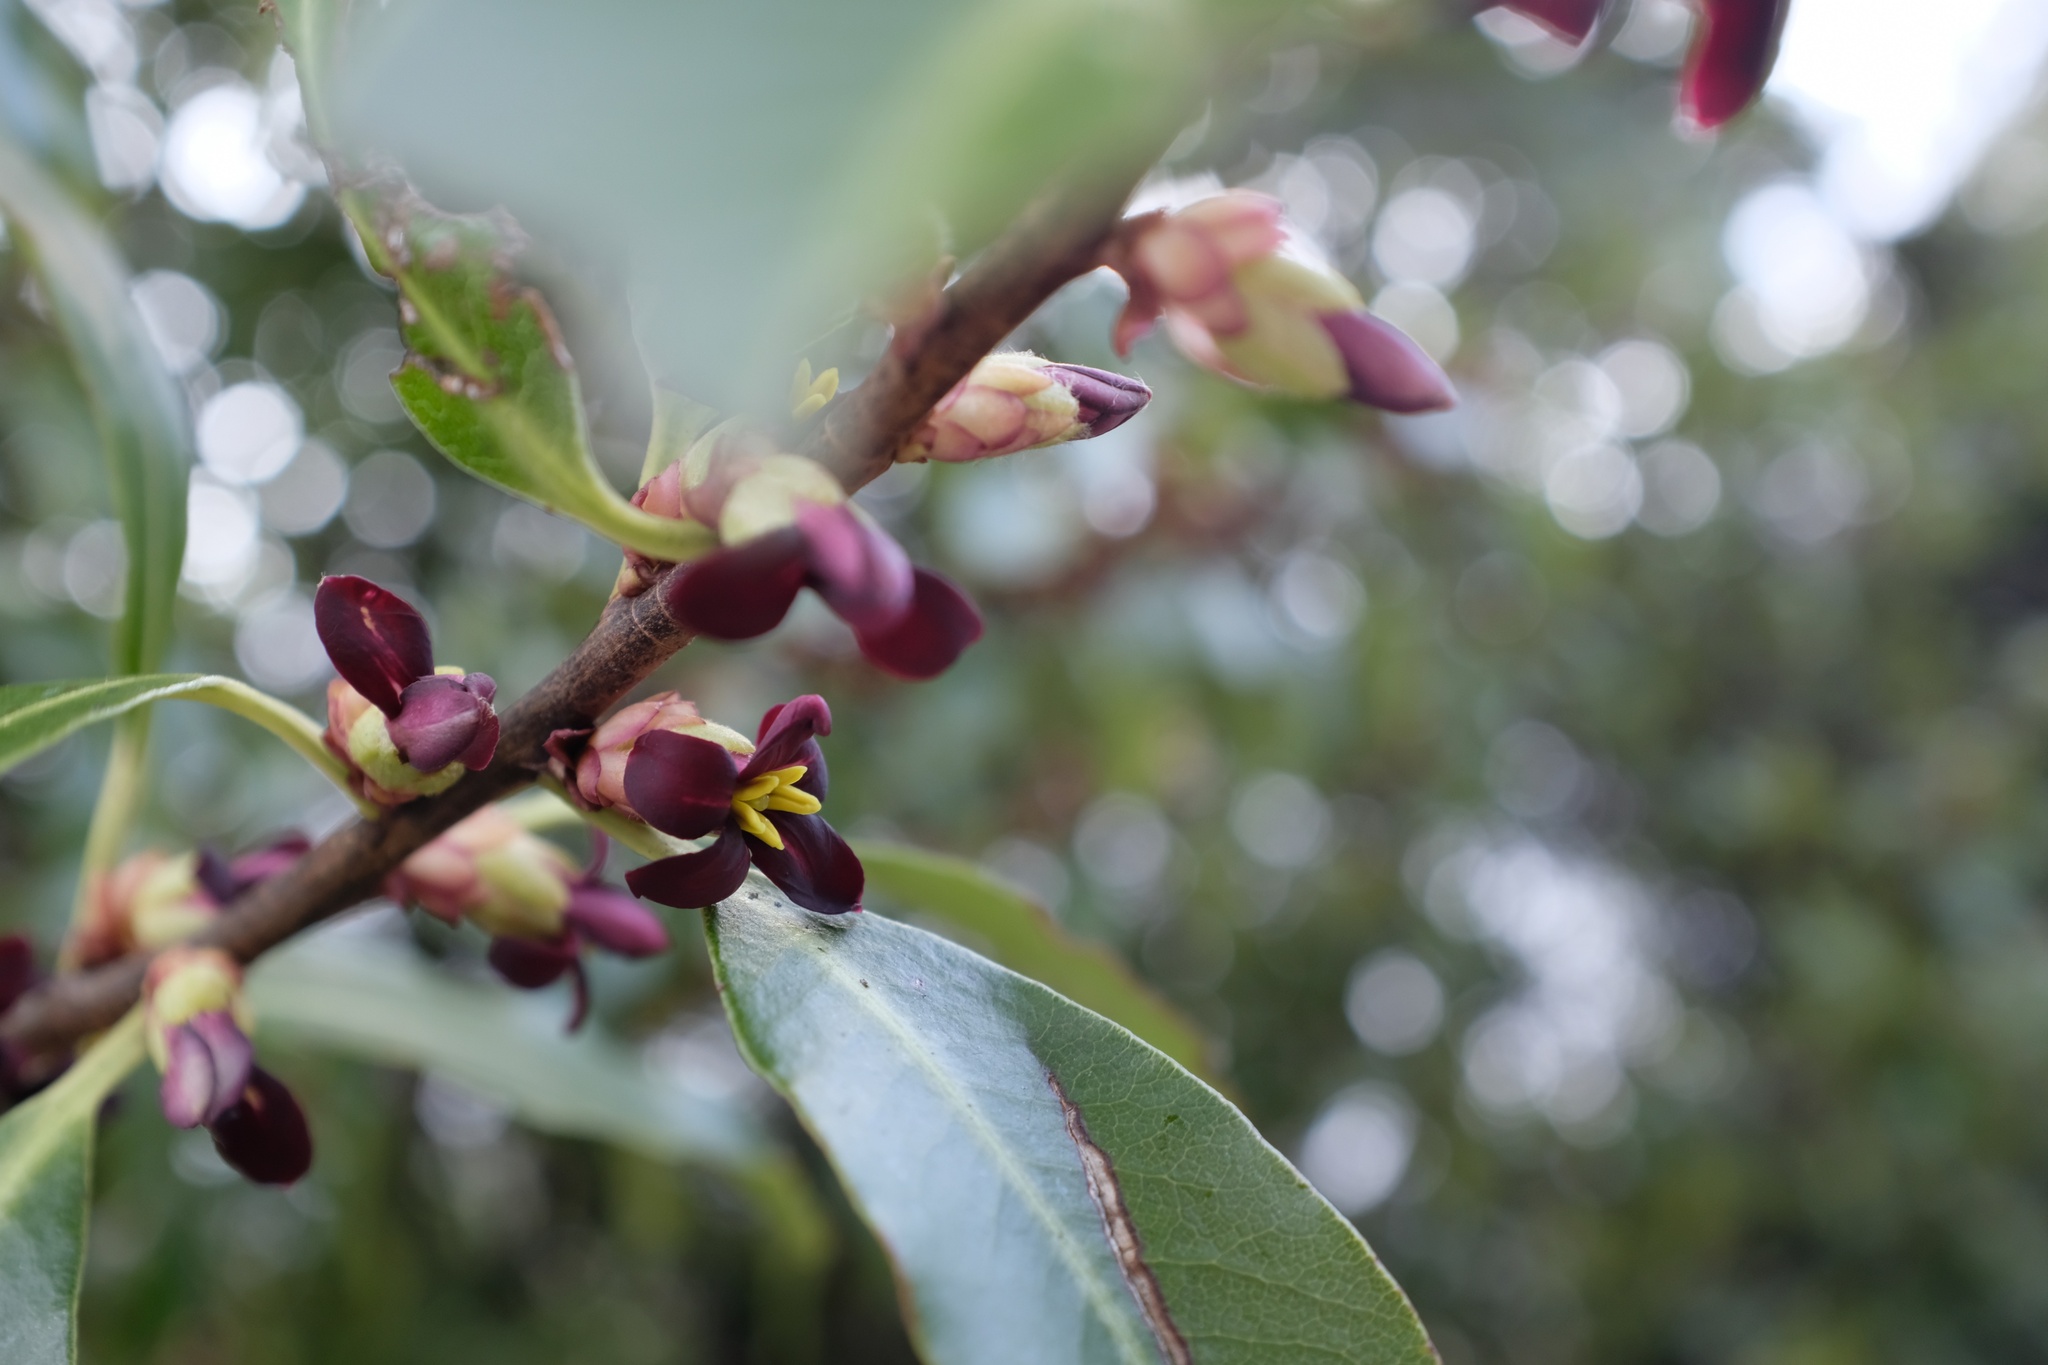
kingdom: Plantae
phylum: Tracheophyta
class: Magnoliopsida
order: Apiales
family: Pittosporaceae
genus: Pittosporum
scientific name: Pittosporum colensoi
